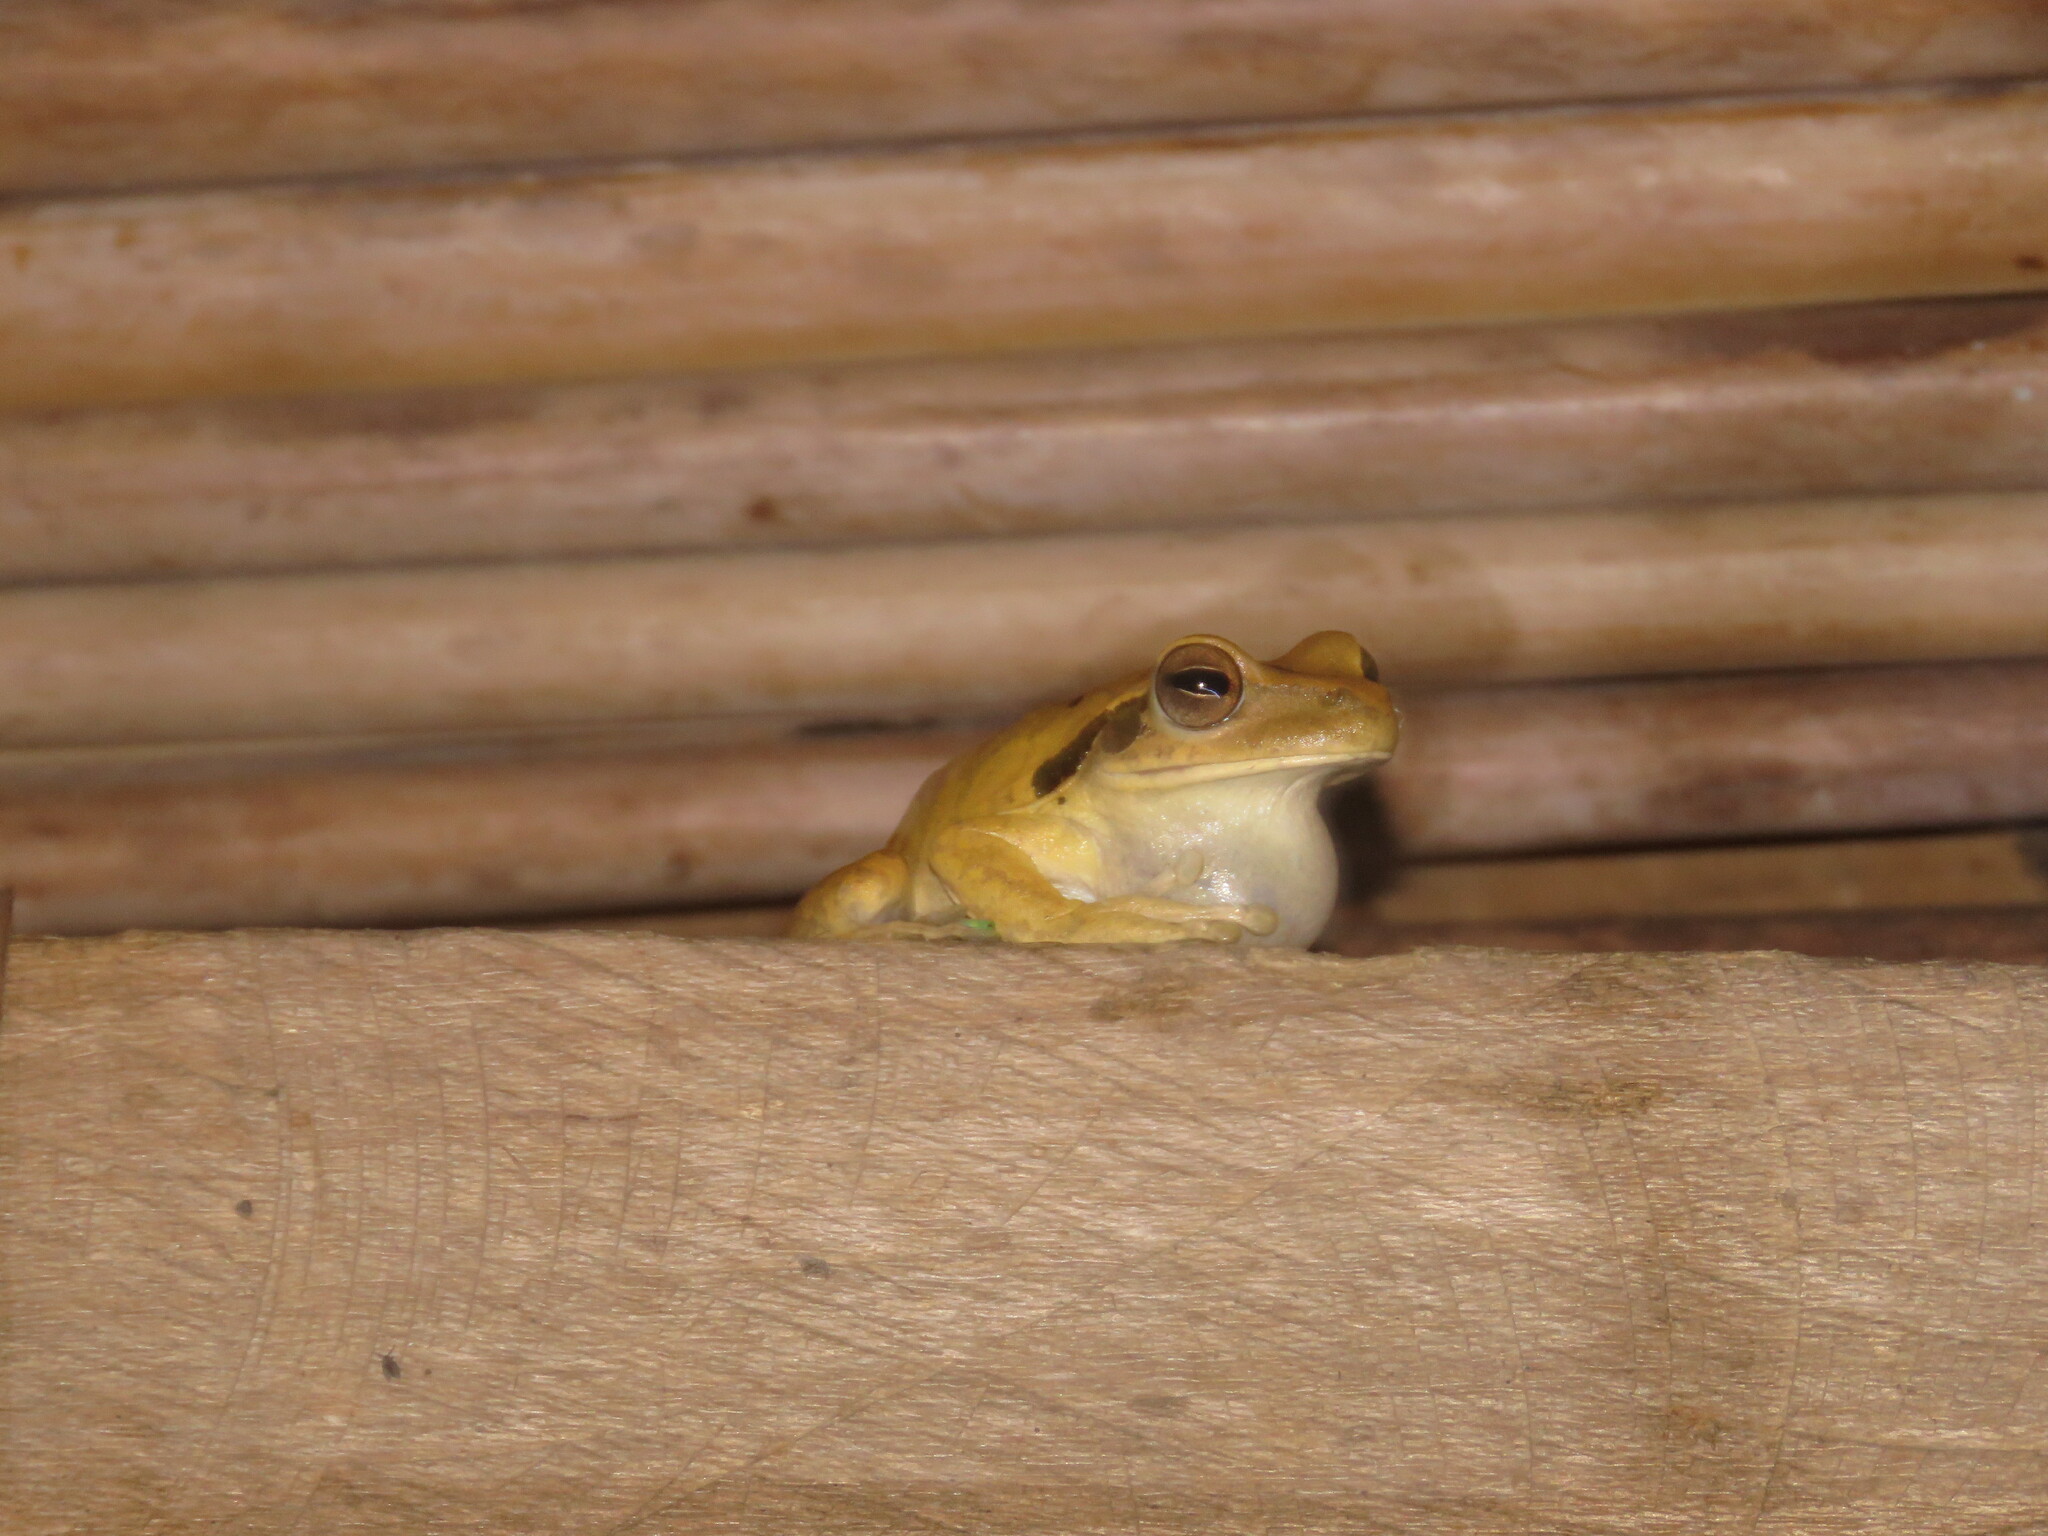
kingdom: Animalia
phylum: Chordata
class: Amphibia
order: Anura
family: Hylidae
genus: Boana
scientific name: Boana raniceps
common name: Chaco treefrog
